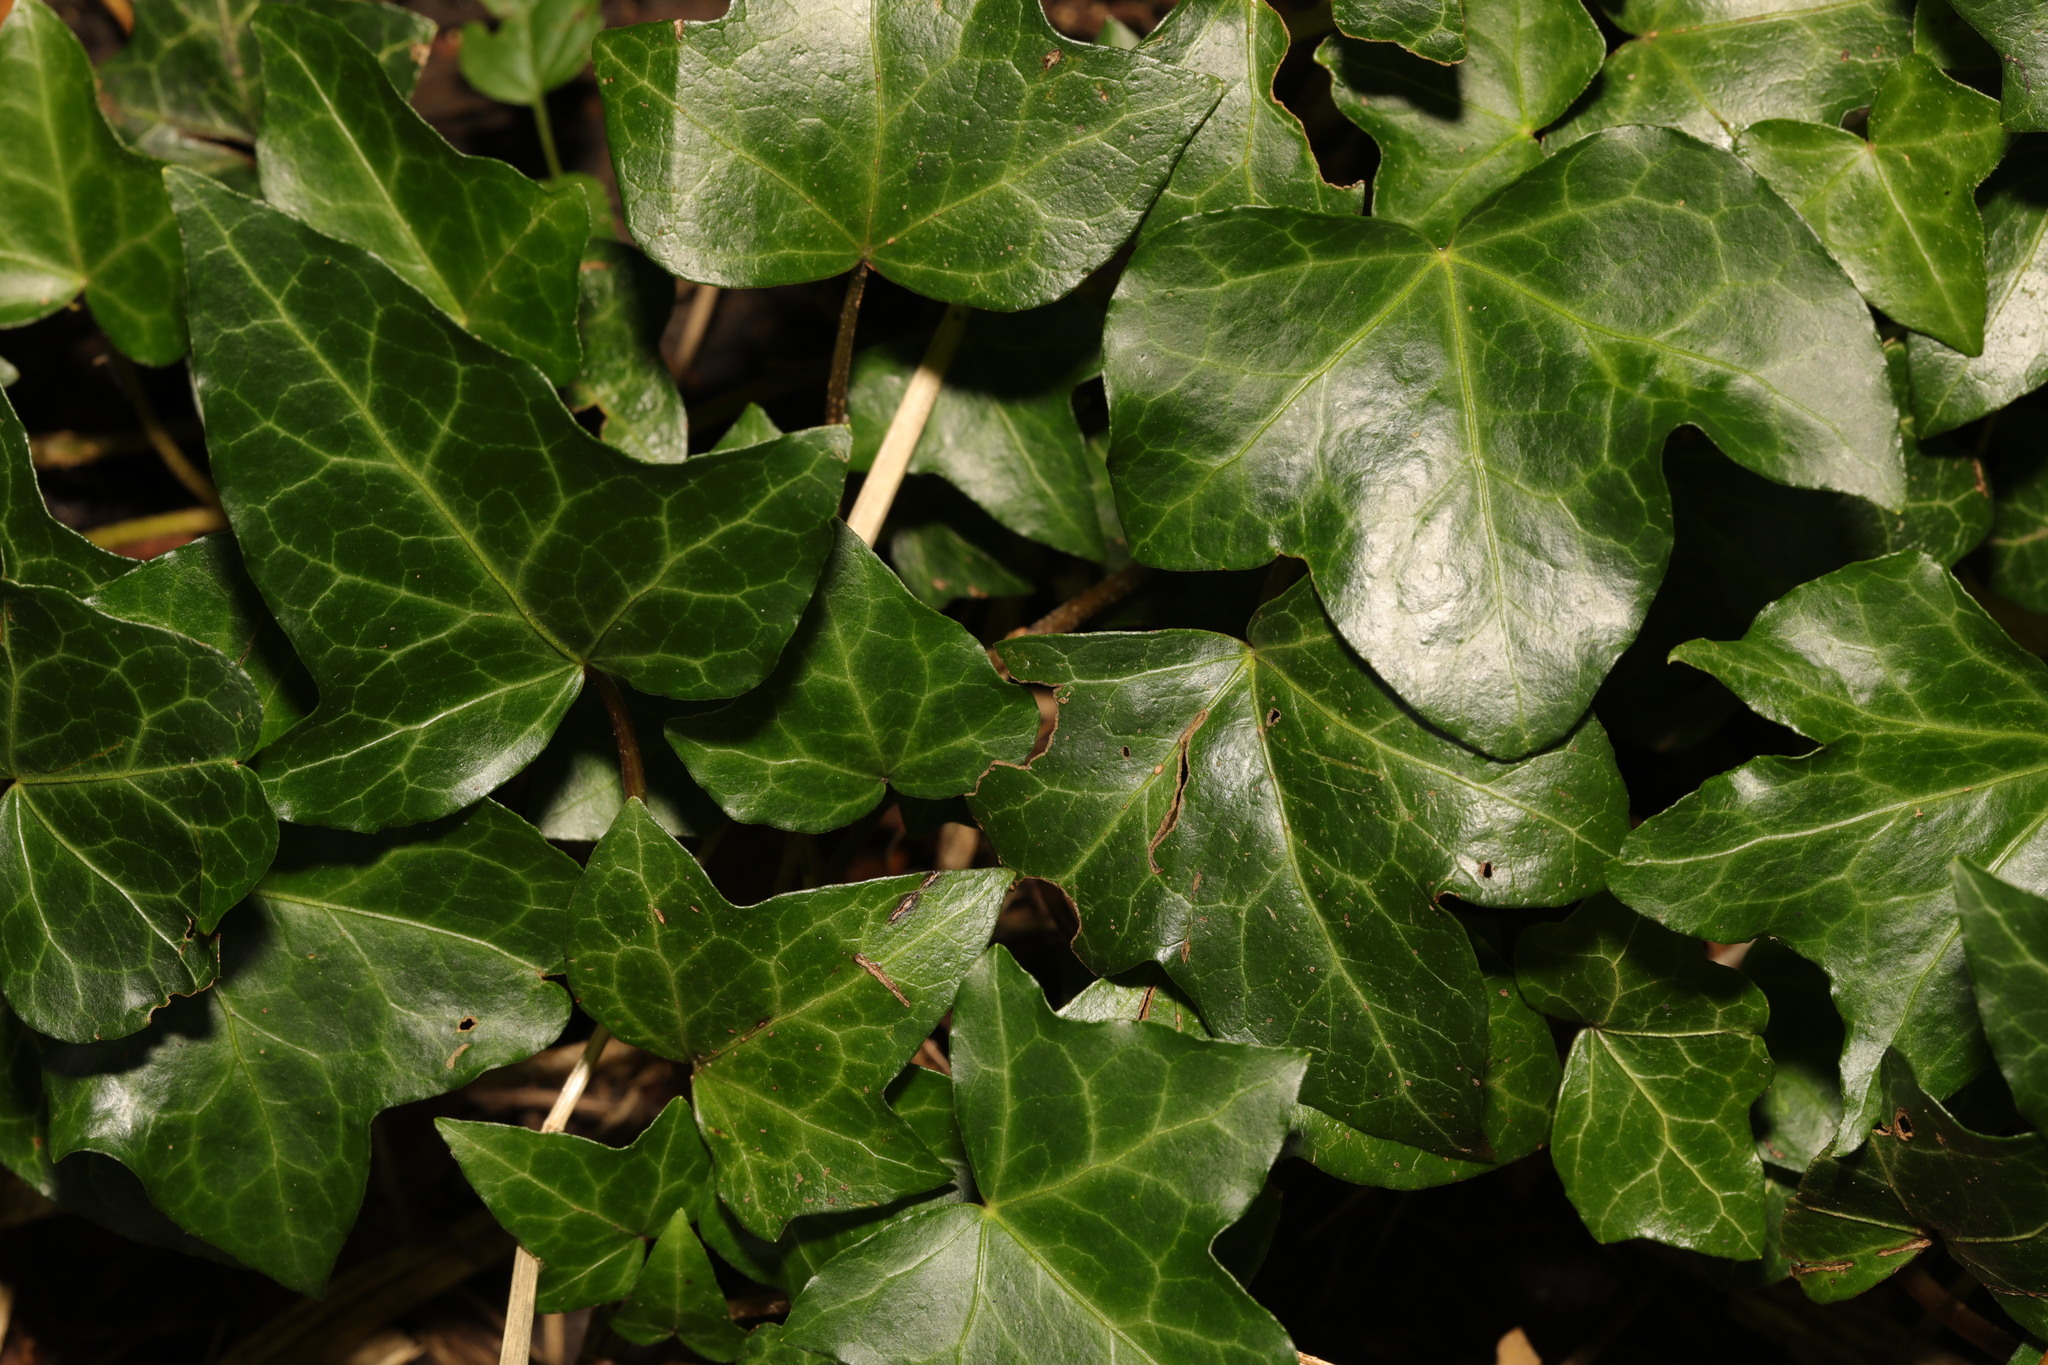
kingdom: Plantae
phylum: Tracheophyta
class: Magnoliopsida
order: Apiales
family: Araliaceae
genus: Hedera
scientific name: Hedera helix
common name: Ivy
